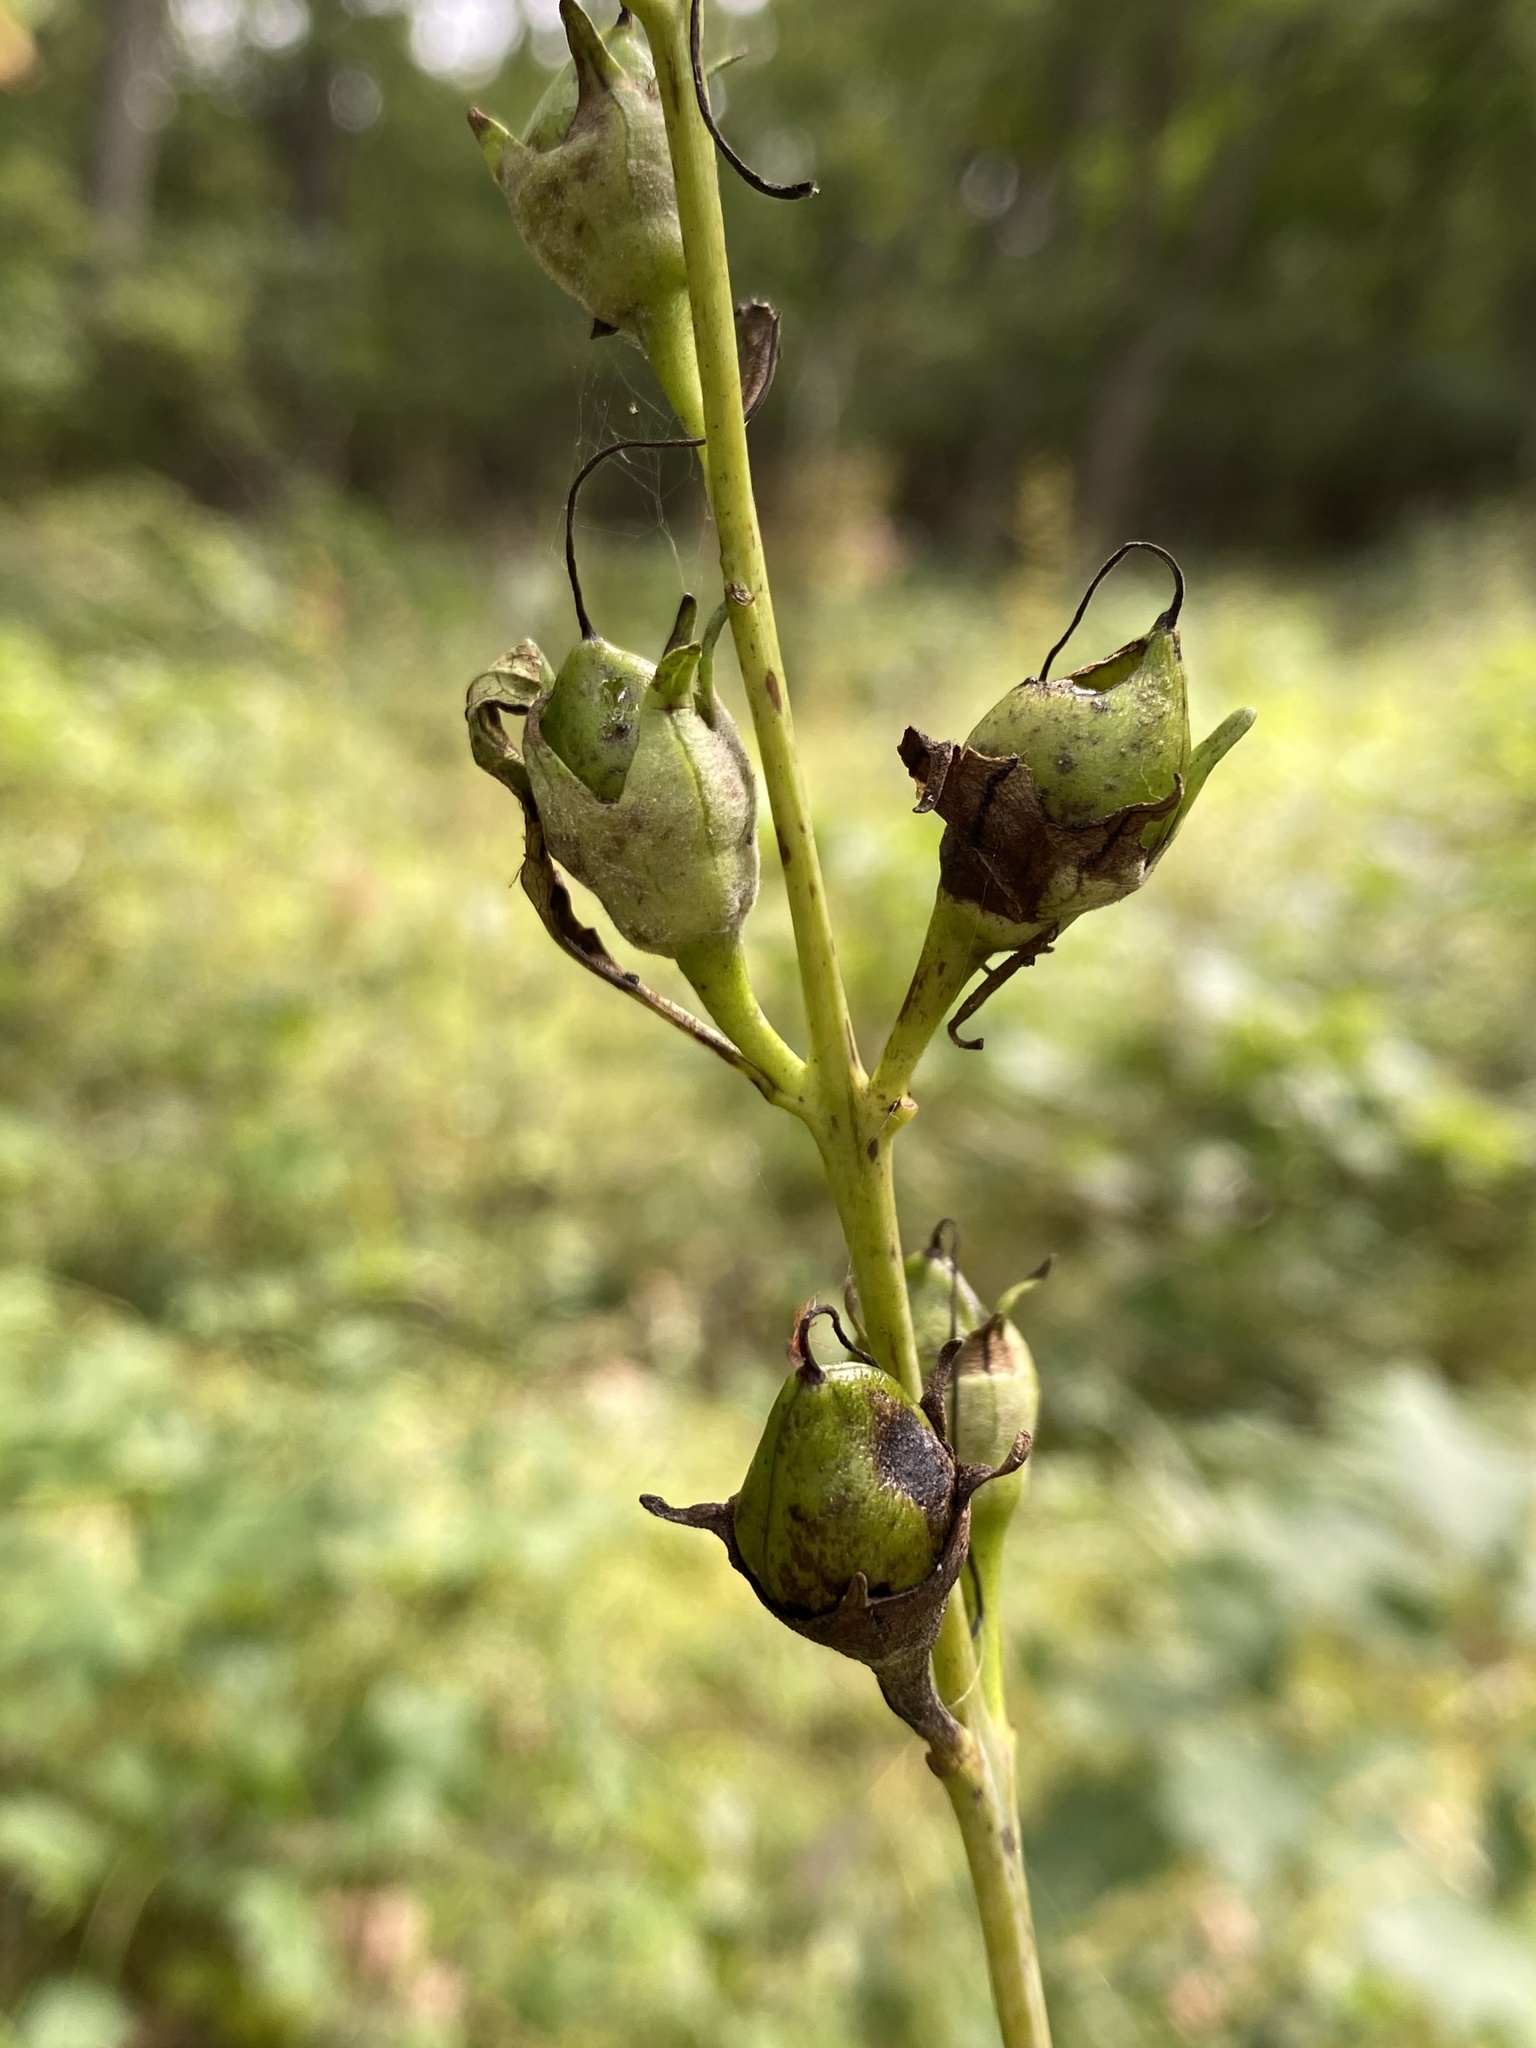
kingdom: Plantae
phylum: Tracheophyta
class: Magnoliopsida
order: Lamiales
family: Orobanchaceae
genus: Aureolaria
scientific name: Aureolaria flava
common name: Smooth false foxglove
